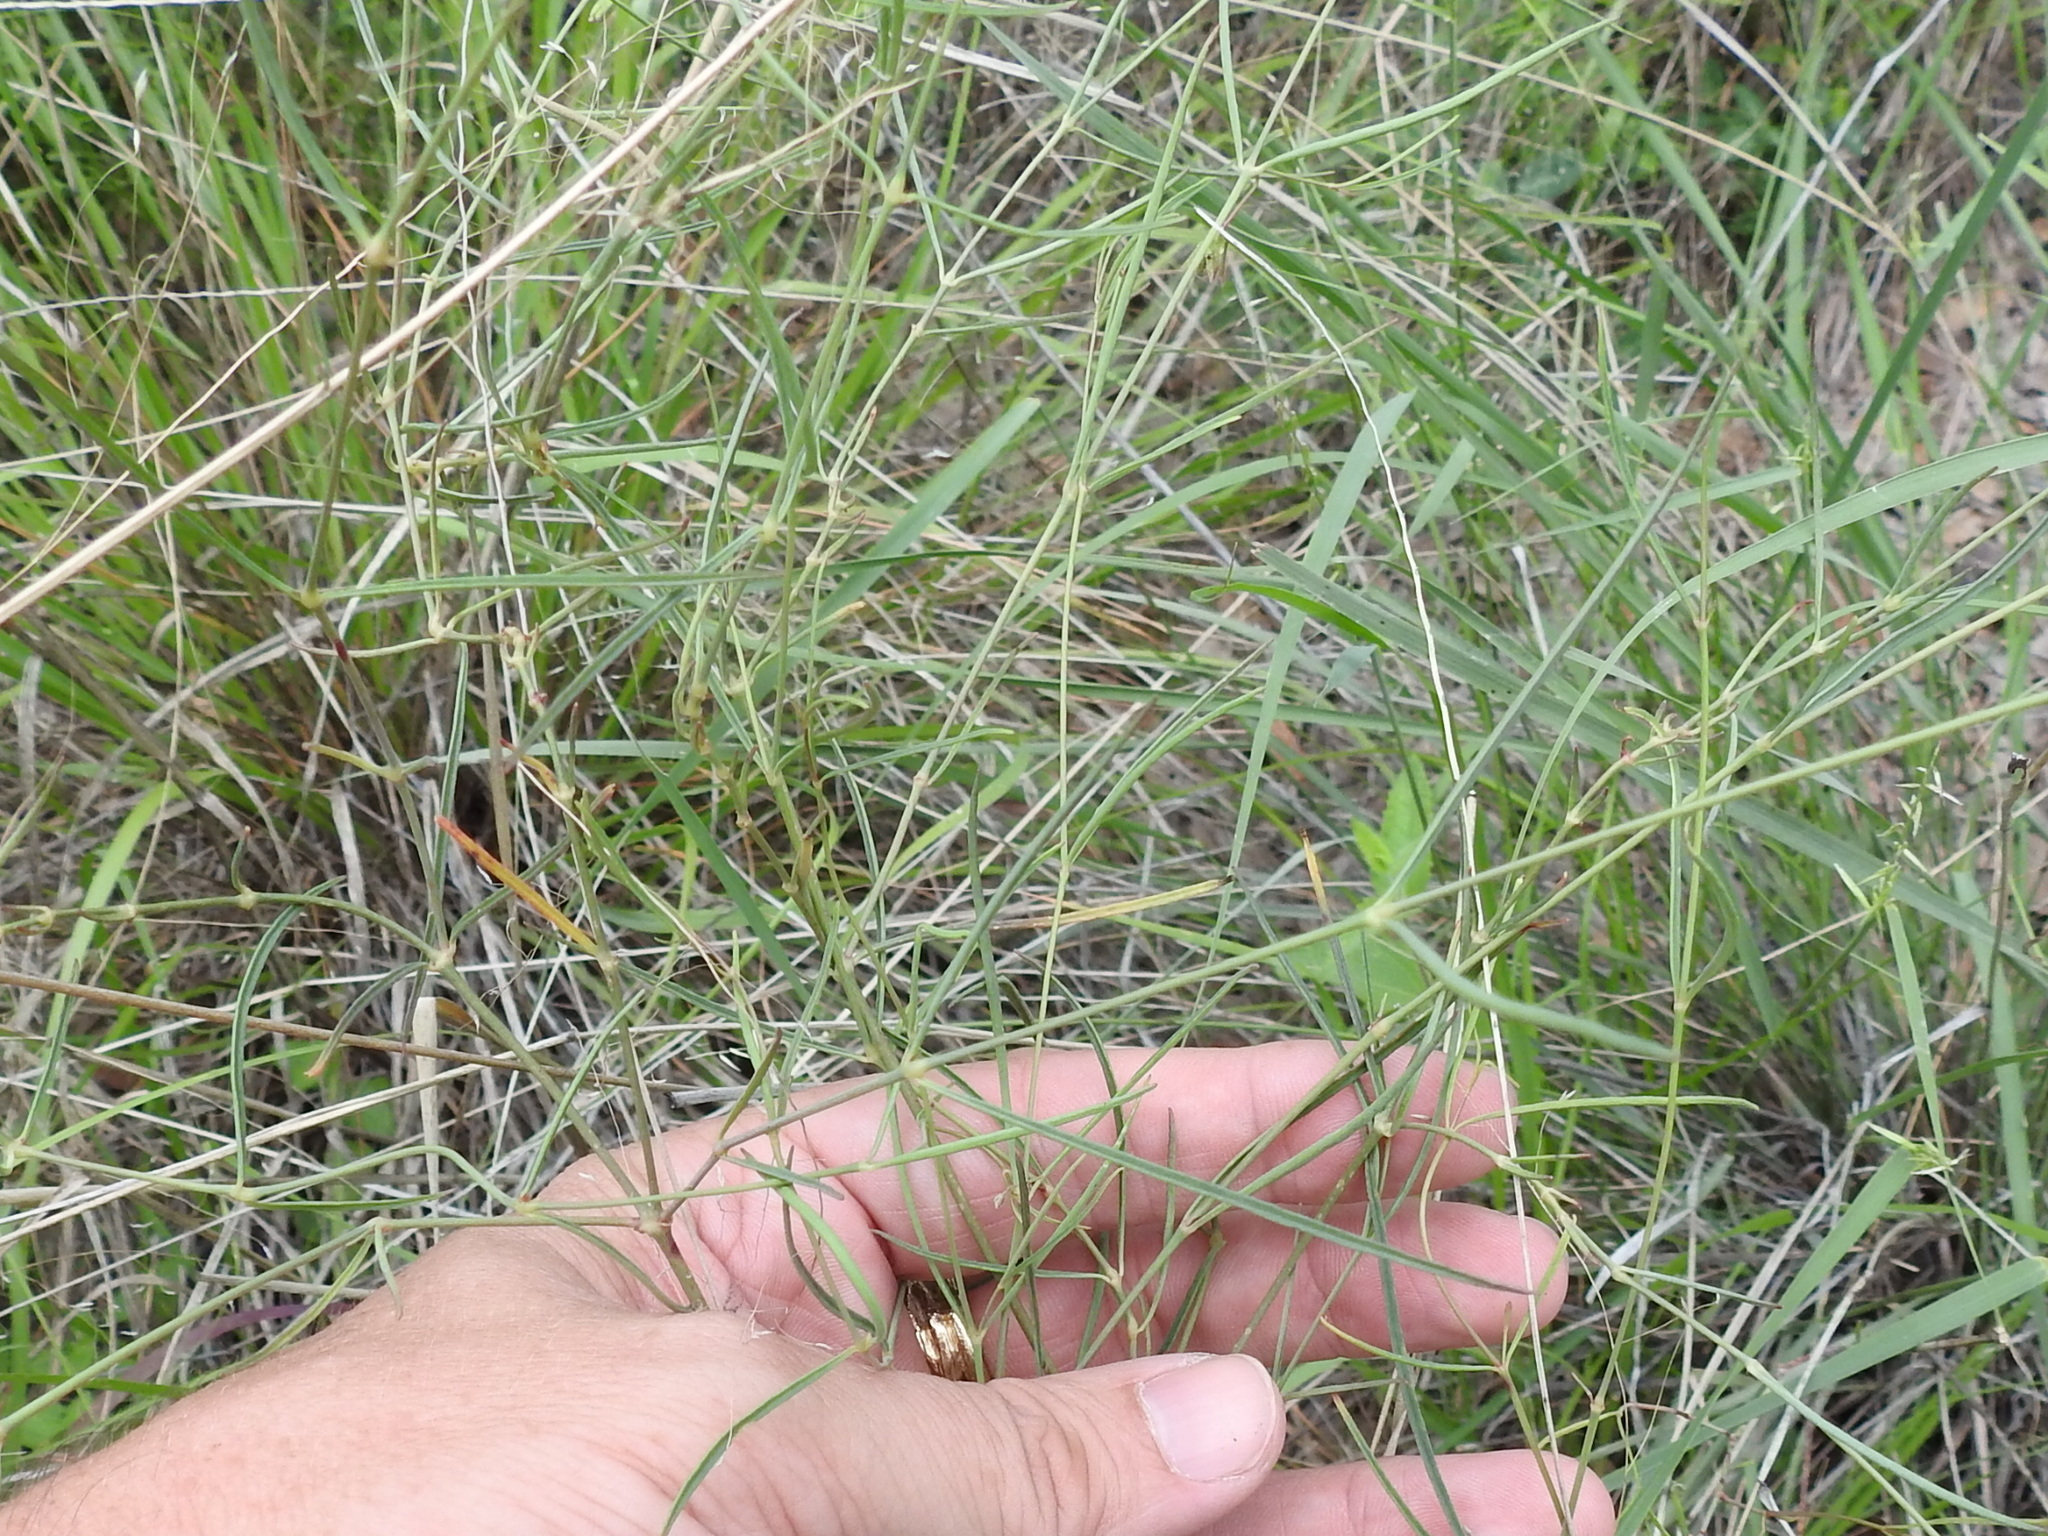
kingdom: Plantae
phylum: Tracheophyta
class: Magnoliopsida
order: Caryophyllales
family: Nyctaginaceae
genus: Mirabilis
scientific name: Mirabilis coccinea
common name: Scarlet four-o'clock
